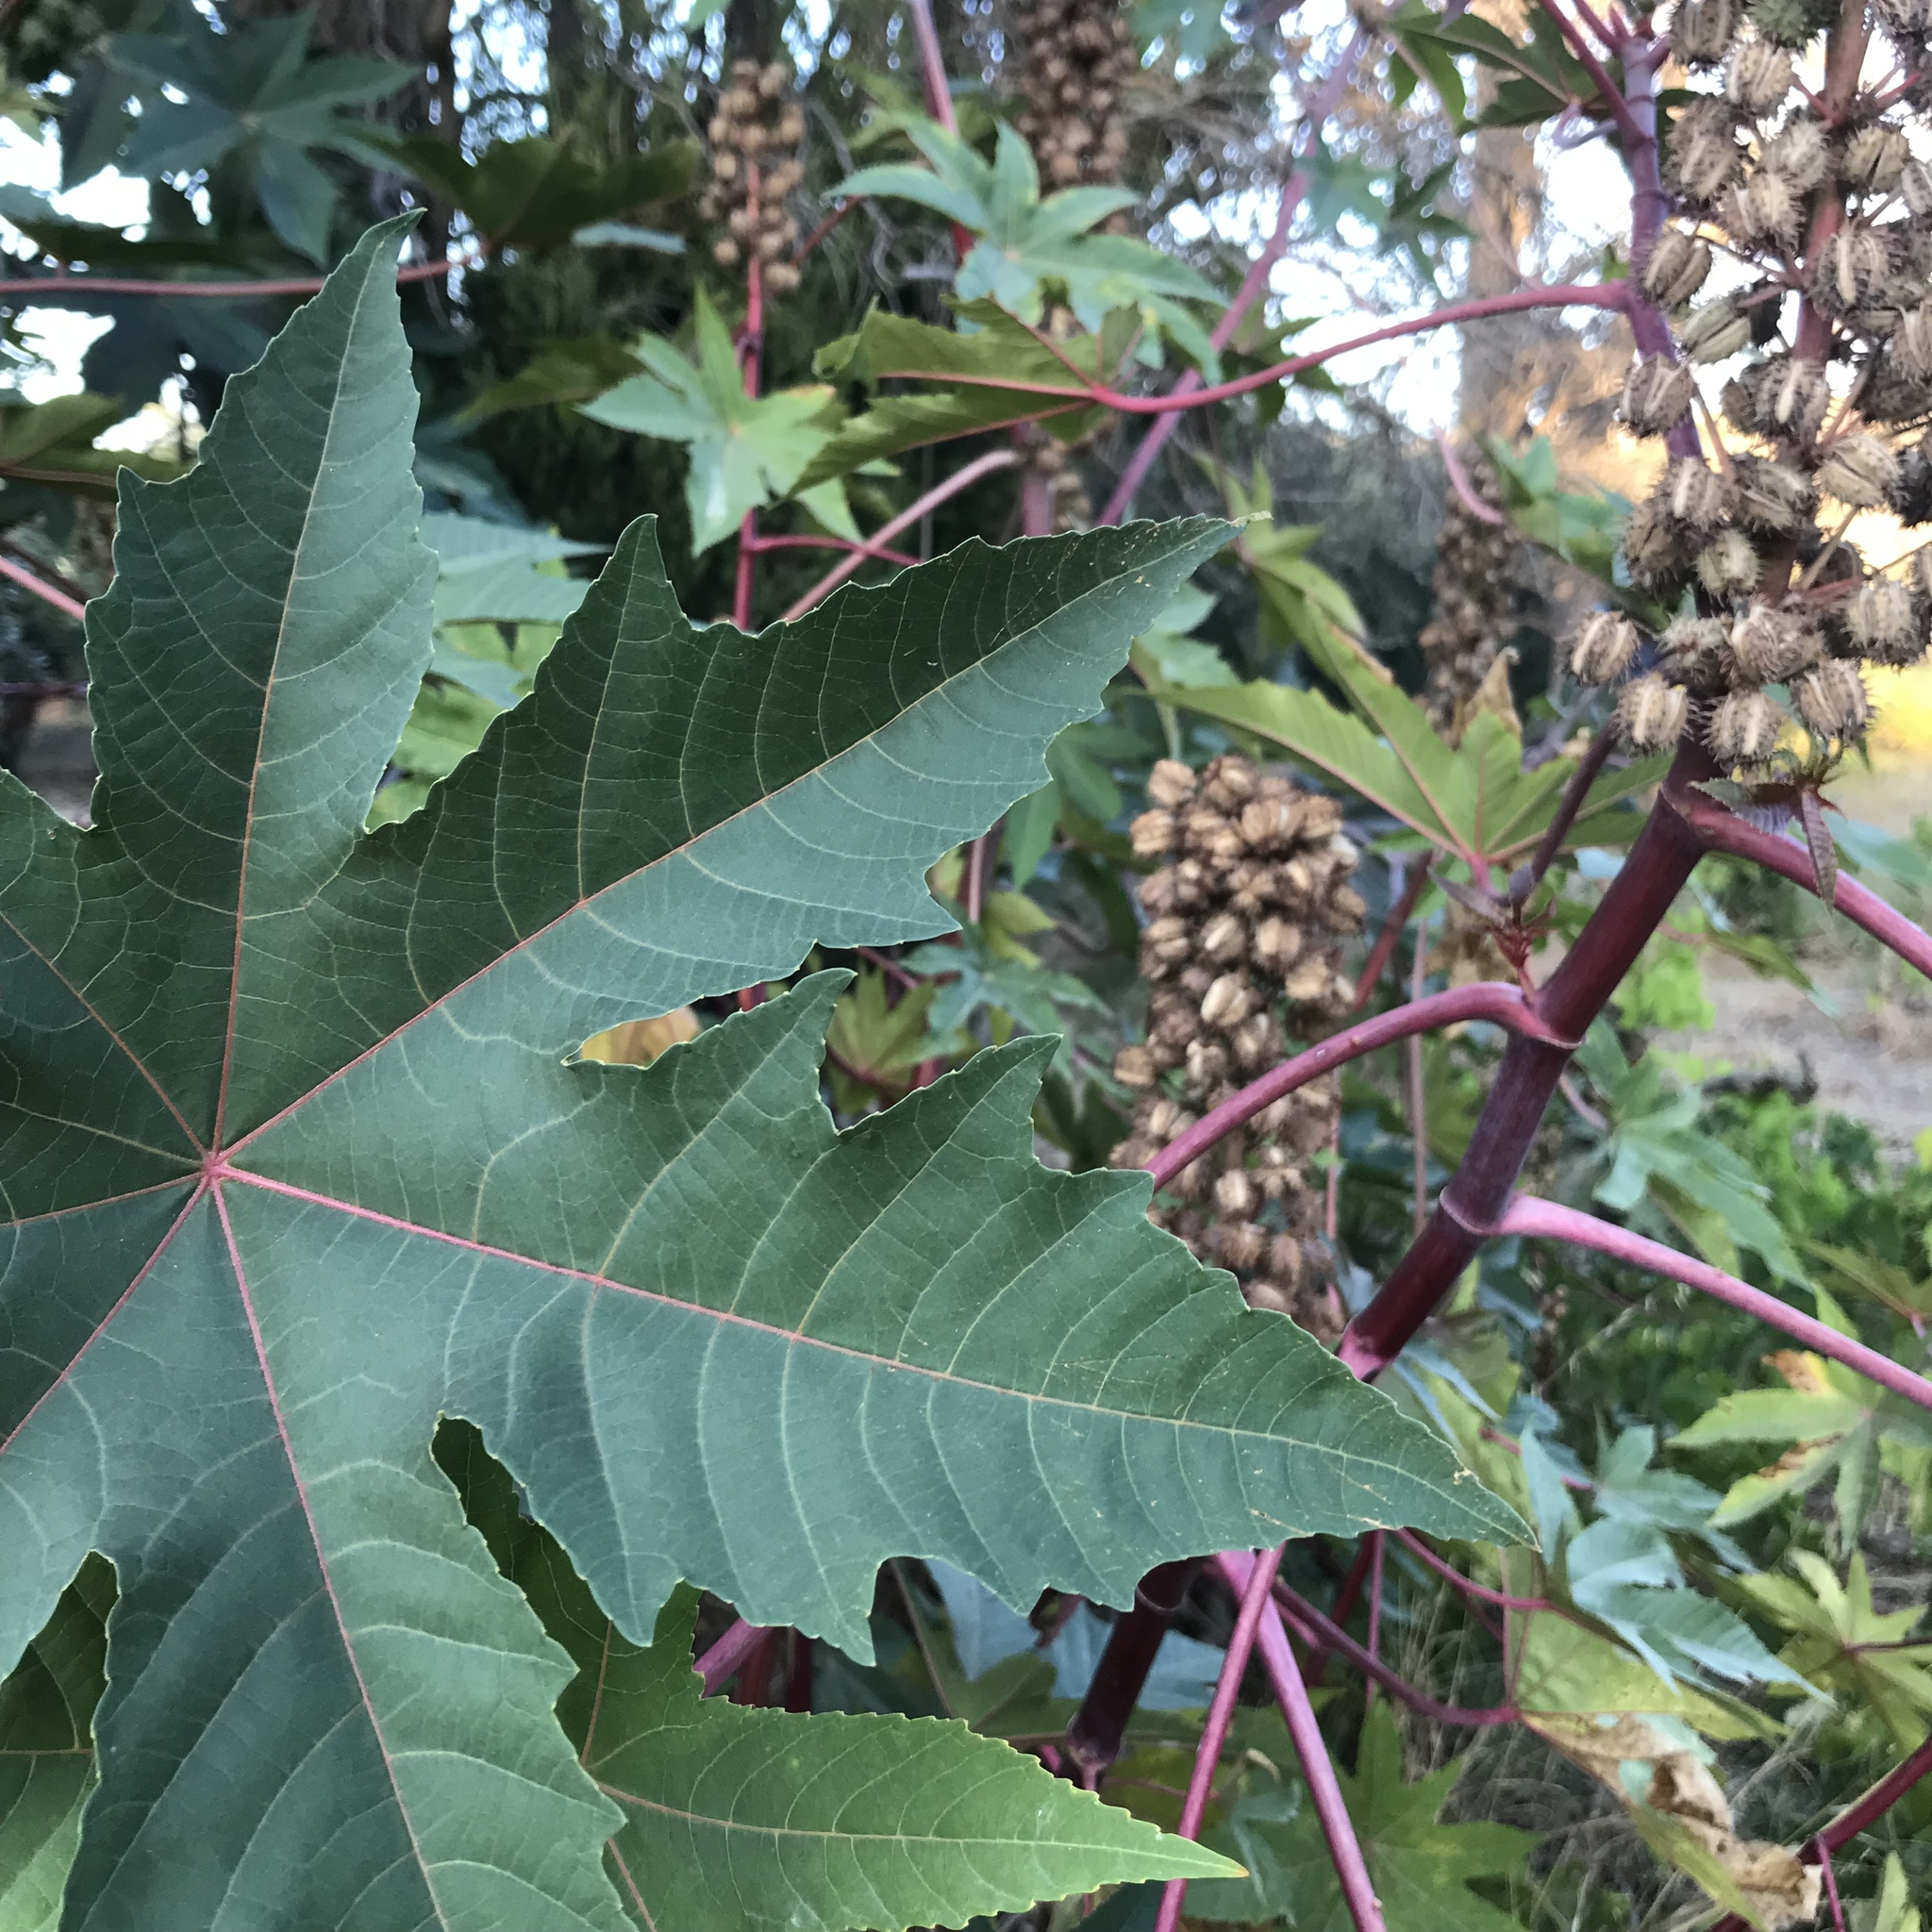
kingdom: Plantae
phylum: Tracheophyta
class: Magnoliopsida
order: Malpighiales
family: Euphorbiaceae
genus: Ricinus
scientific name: Ricinus communis
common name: Castor-oil-plant
